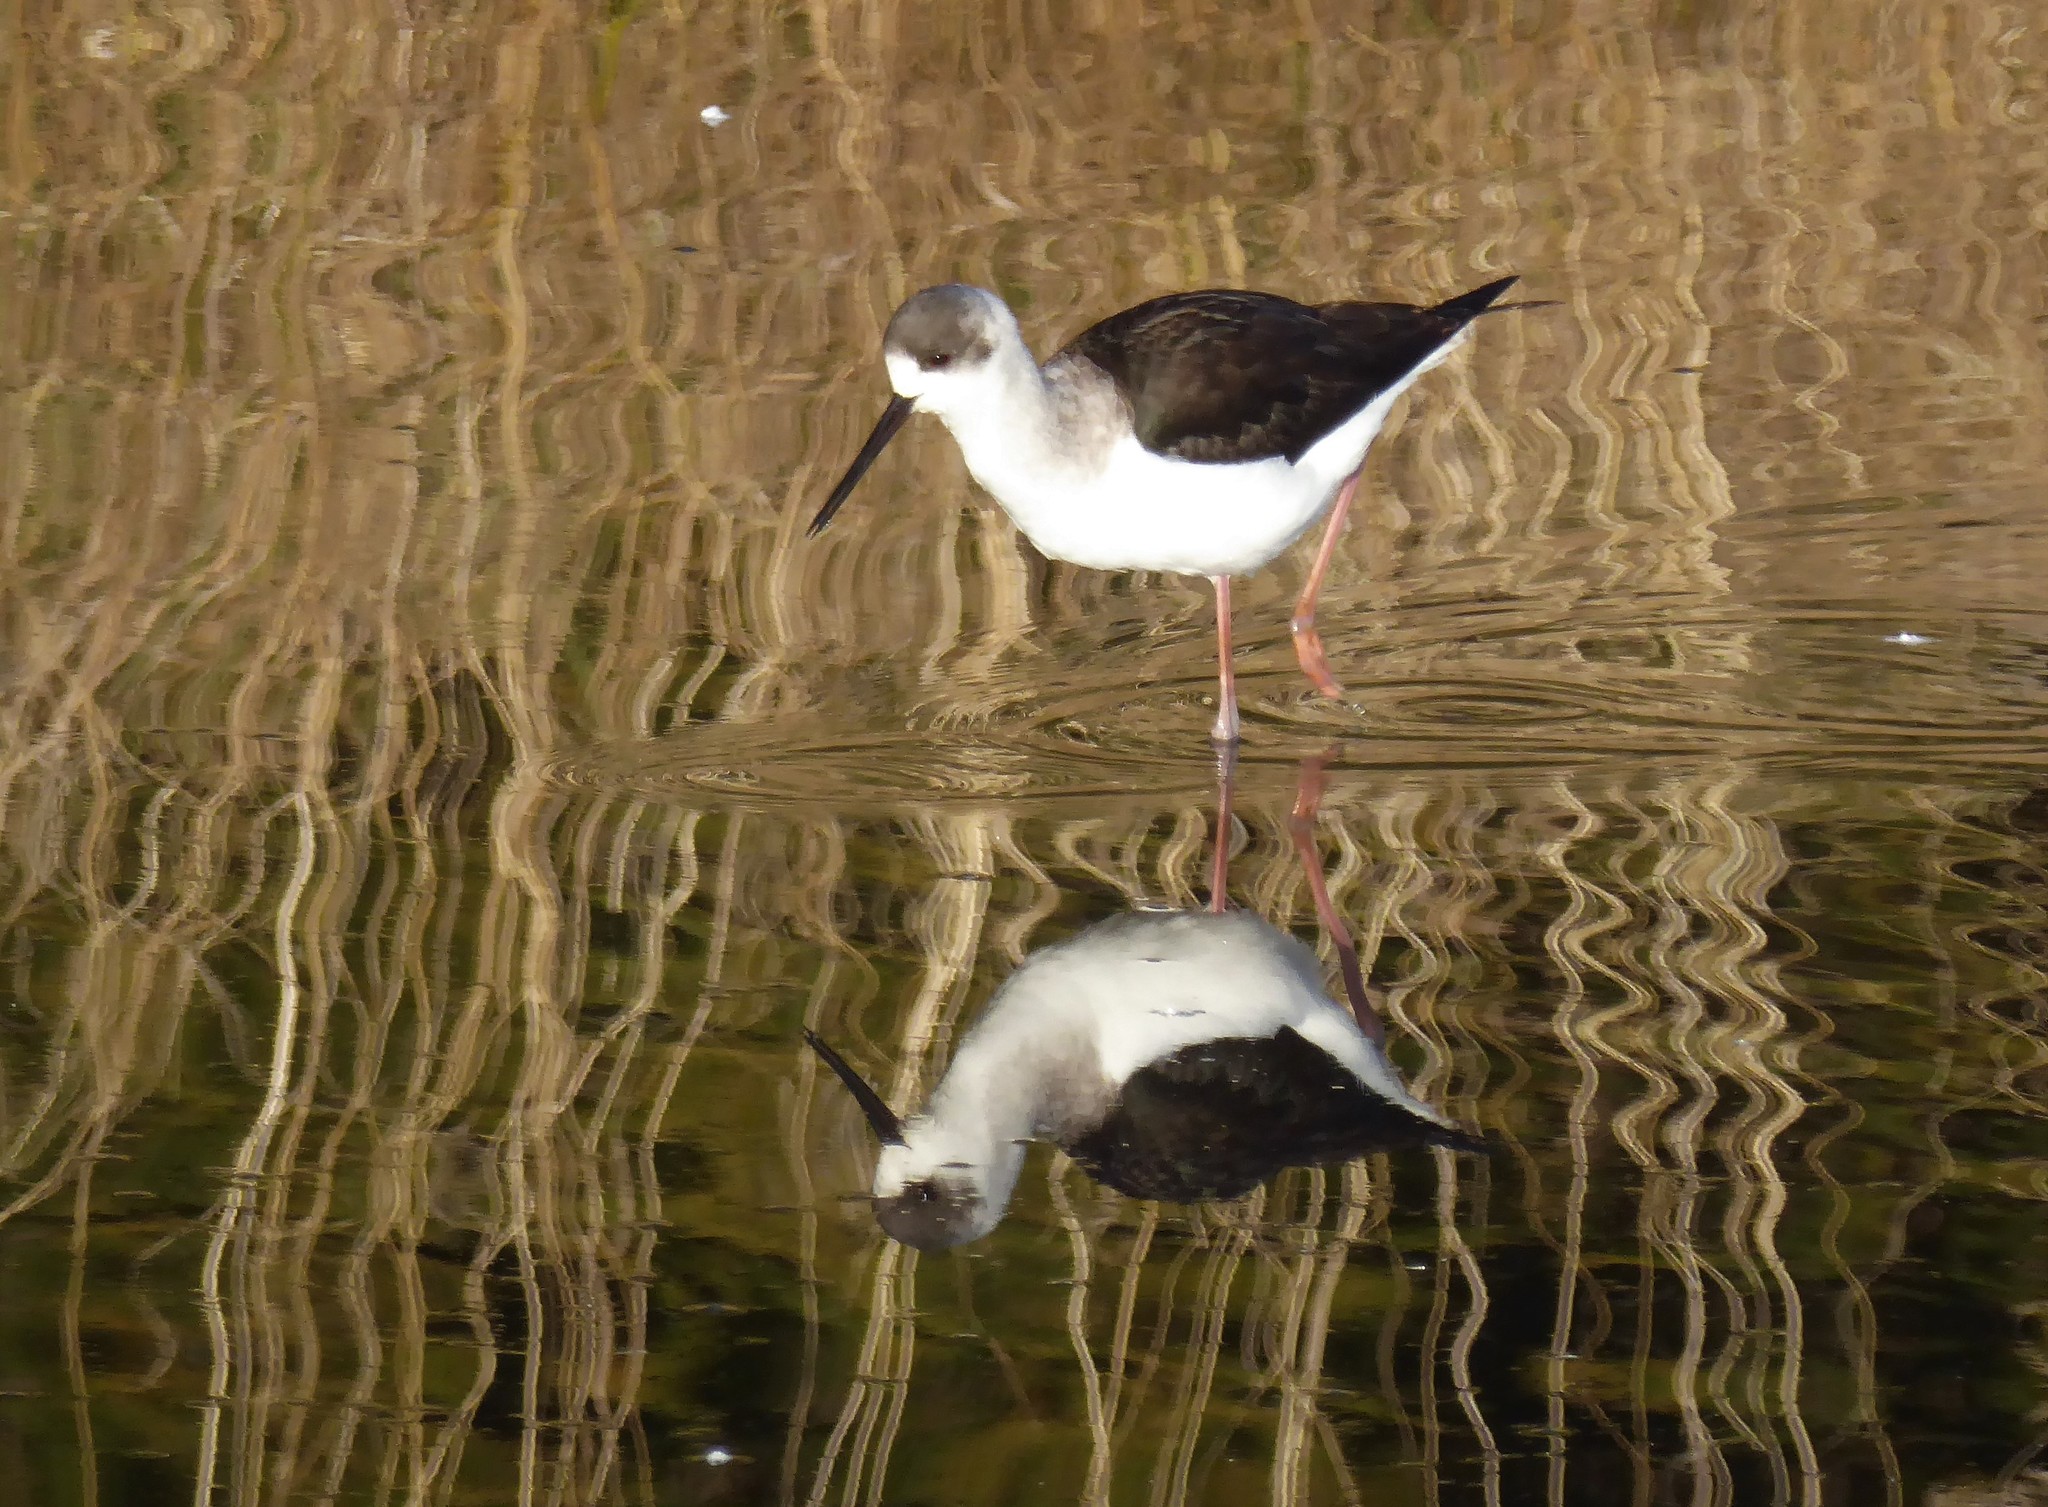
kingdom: Animalia
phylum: Chordata
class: Aves
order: Charadriiformes
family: Recurvirostridae
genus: Himantopus
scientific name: Himantopus leucocephalus
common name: White-headed stilt
